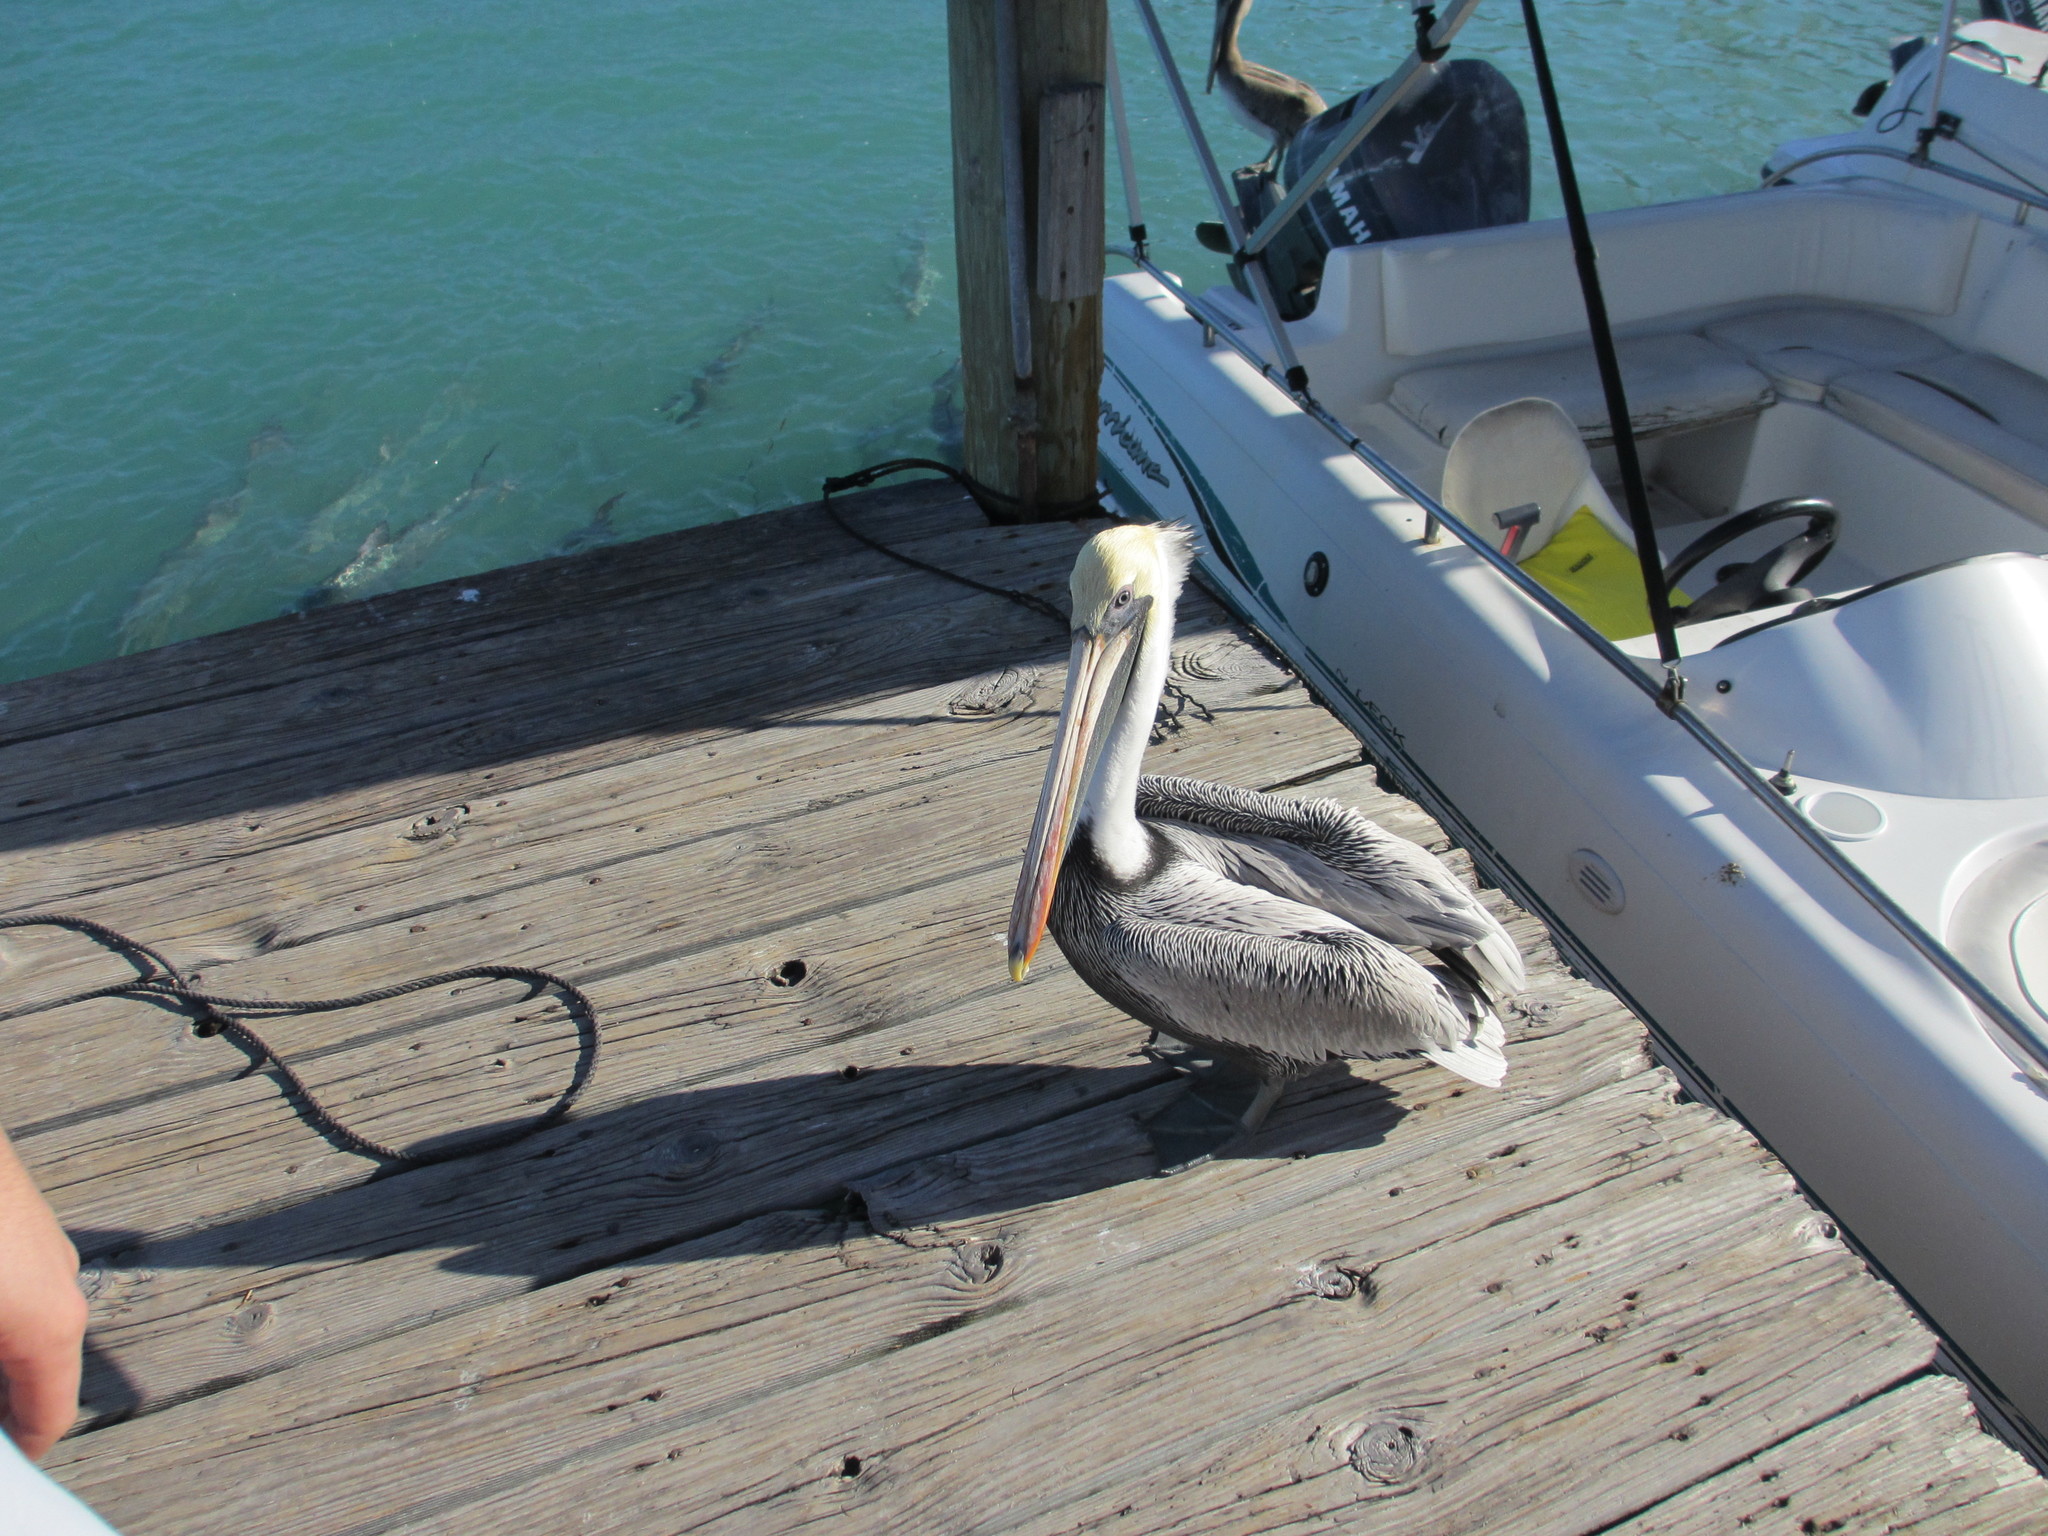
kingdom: Animalia
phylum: Chordata
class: Aves
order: Pelecaniformes
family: Pelecanidae
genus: Pelecanus
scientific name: Pelecanus occidentalis
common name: Brown pelican
